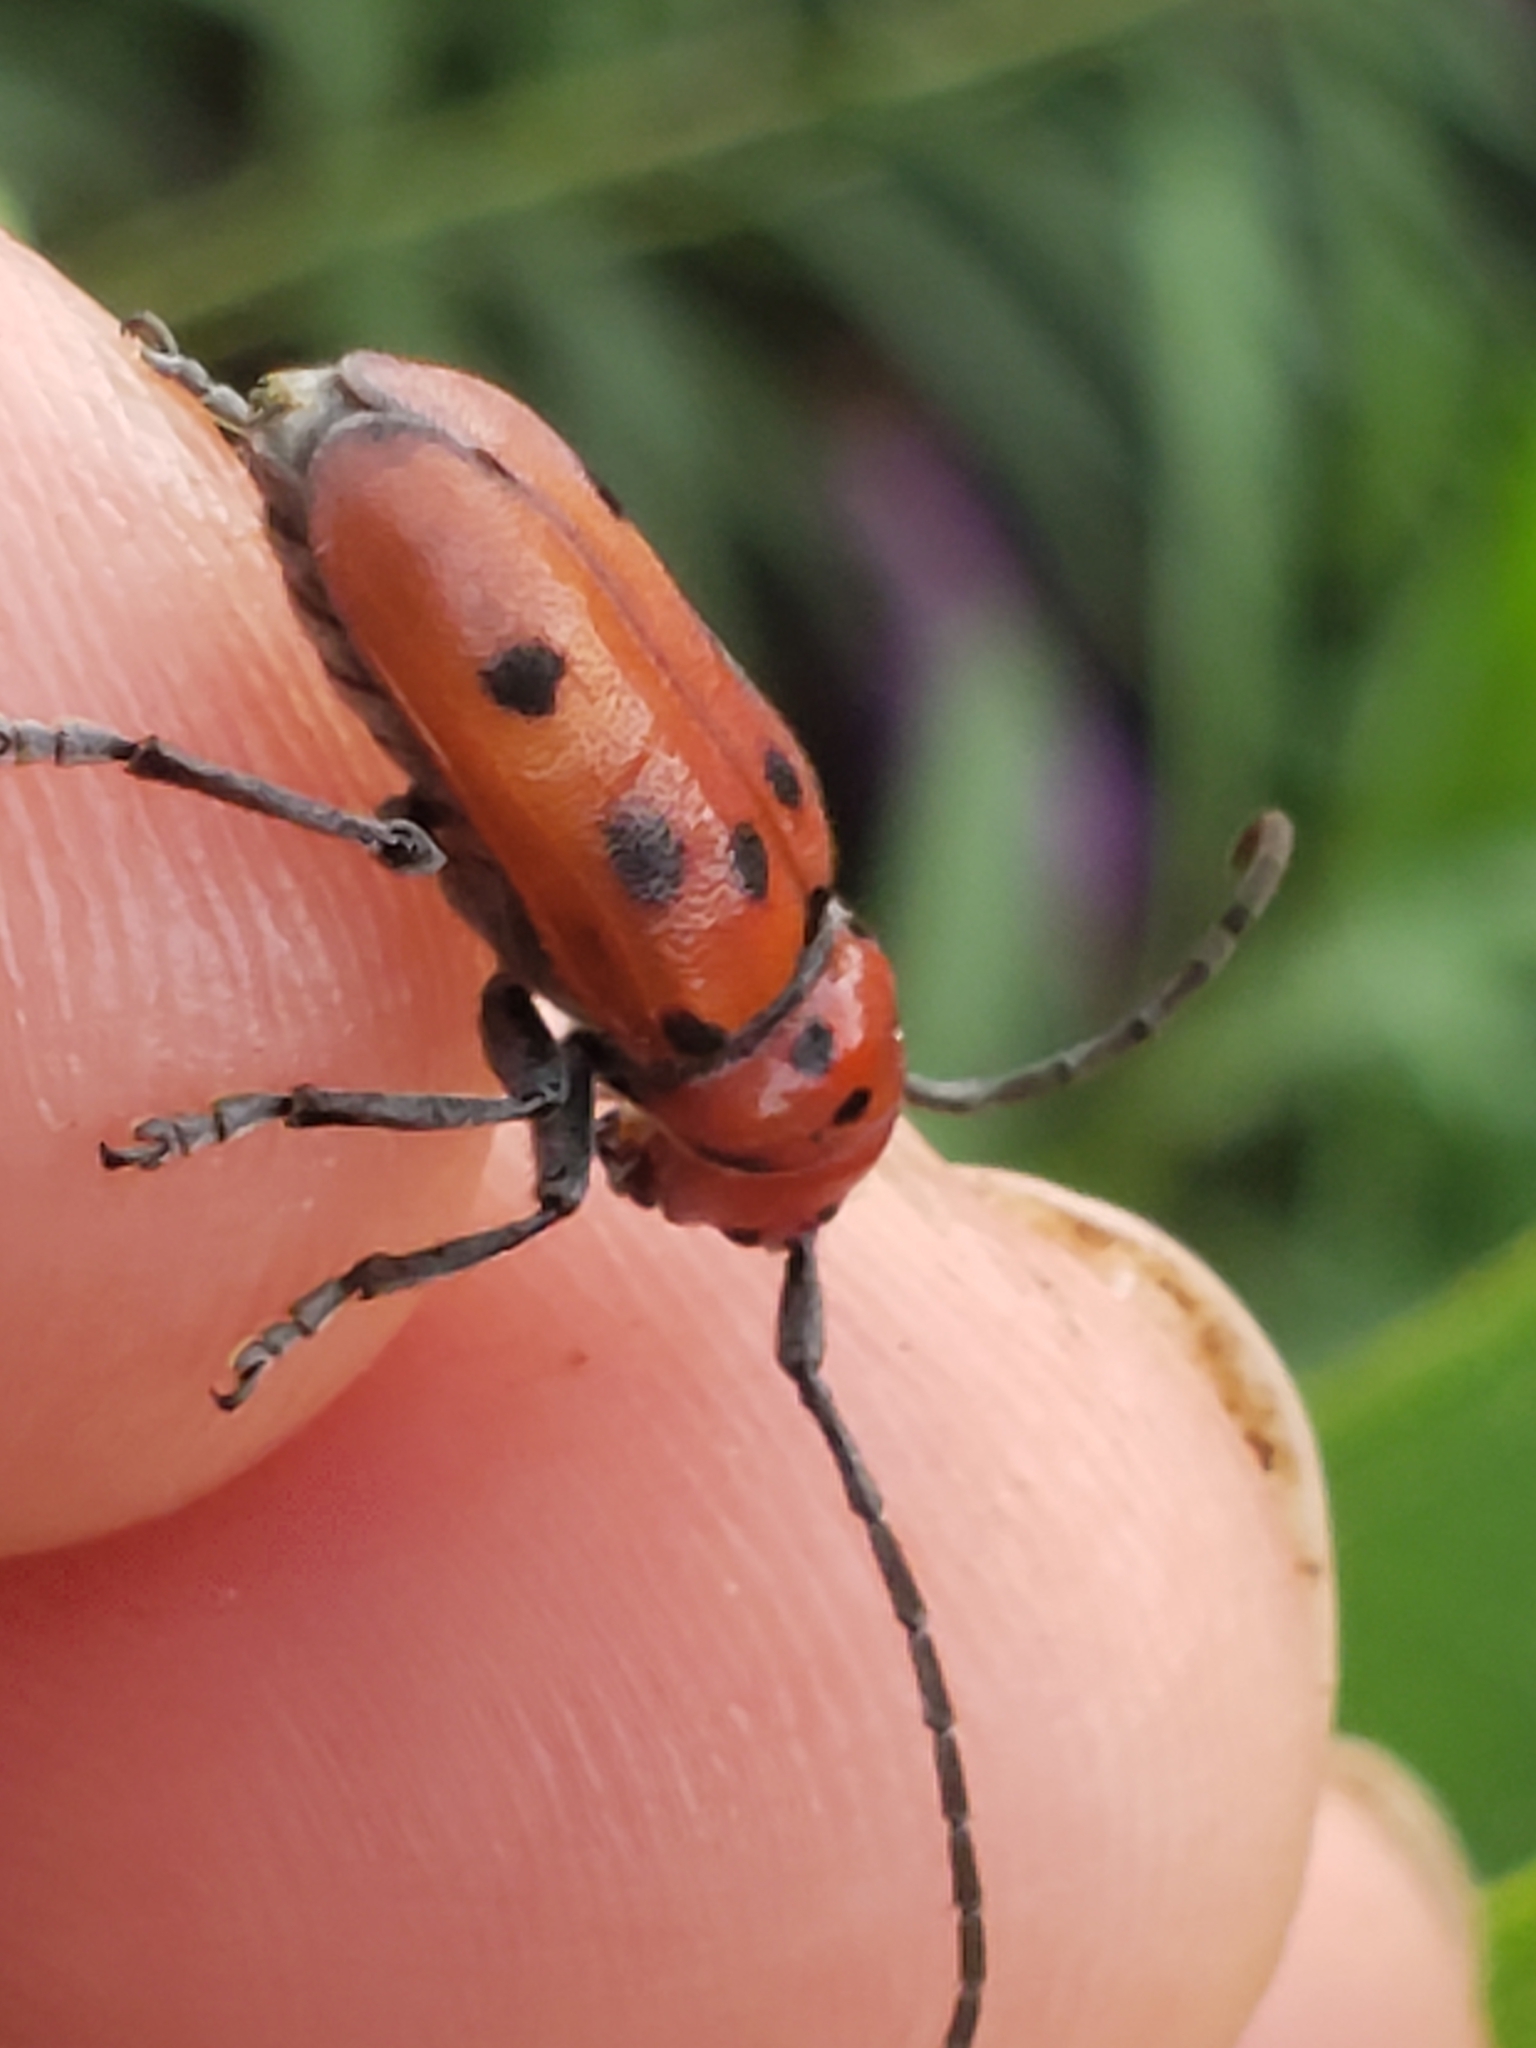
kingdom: Animalia
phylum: Arthropoda
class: Insecta
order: Coleoptera
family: Cerambycidae
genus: Tetraopes
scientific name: Tetraopes tetrophthalmus
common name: Red milkweed beetle
